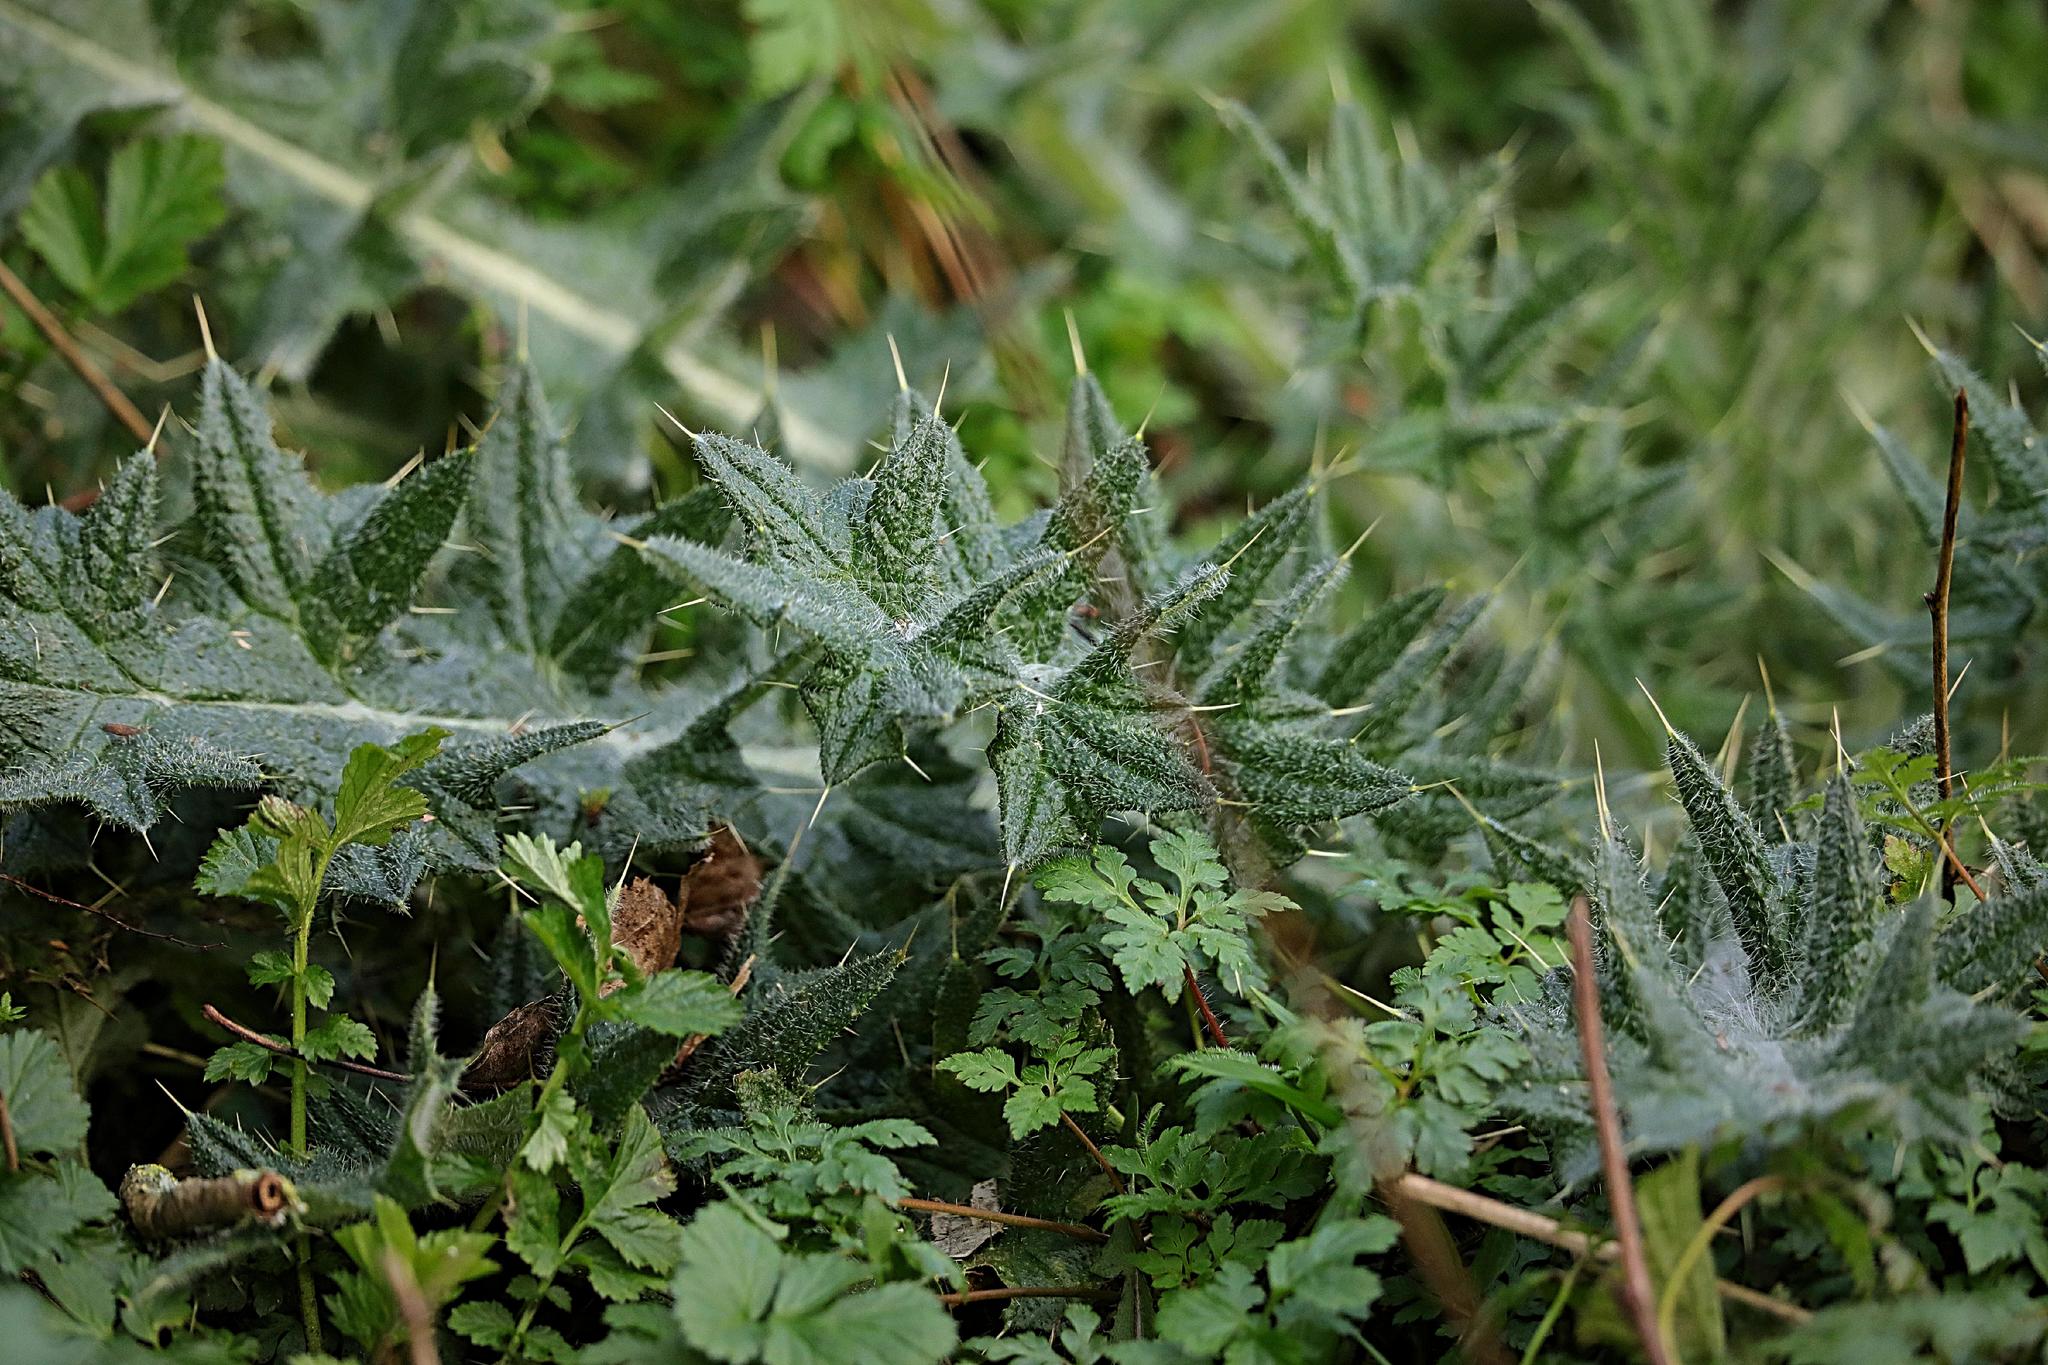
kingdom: Plantae
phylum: Tracheophyta
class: Magnoliopsida
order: Asterales
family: Asteraceae
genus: Cirsium
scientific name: Cirsium vulgare
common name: Bull thistle
